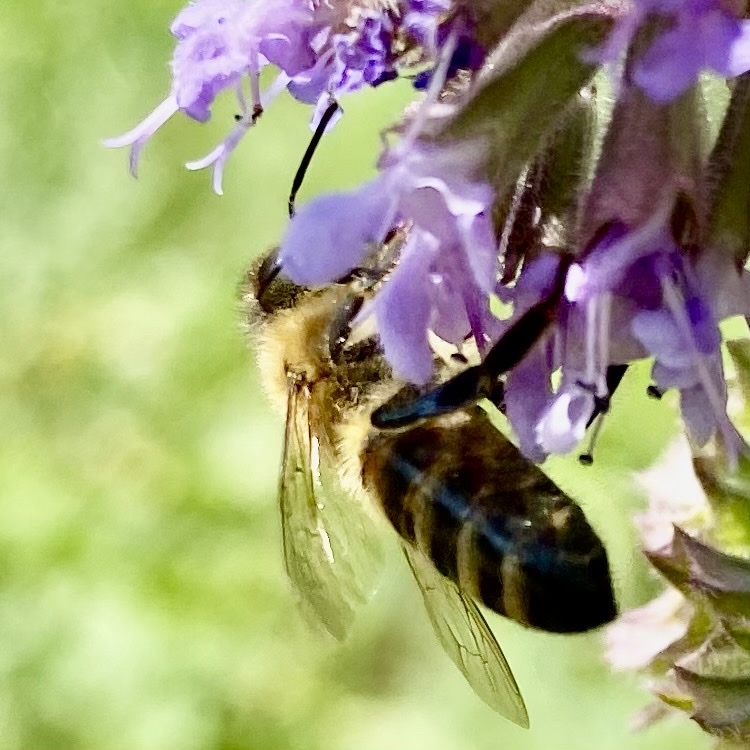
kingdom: Animalia
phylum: Arthropoda
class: Insecta
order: Hymenoptera
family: Apidae
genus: Apis
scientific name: Apis mellifera
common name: Honey bee
